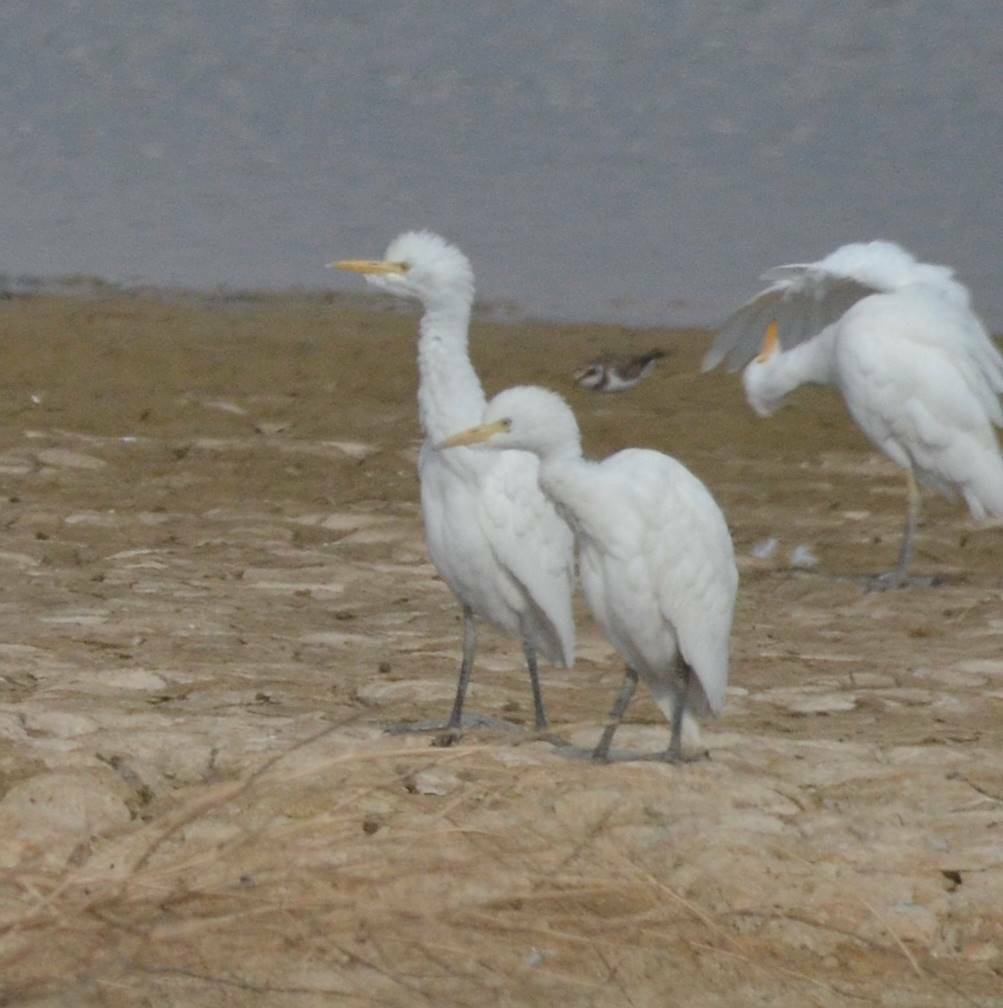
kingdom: Animalia
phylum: Chordata
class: Aves
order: Pelecaniformes
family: Ardeidae
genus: Bubulcus
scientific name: Bubulcus ibis
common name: Cattle egret
